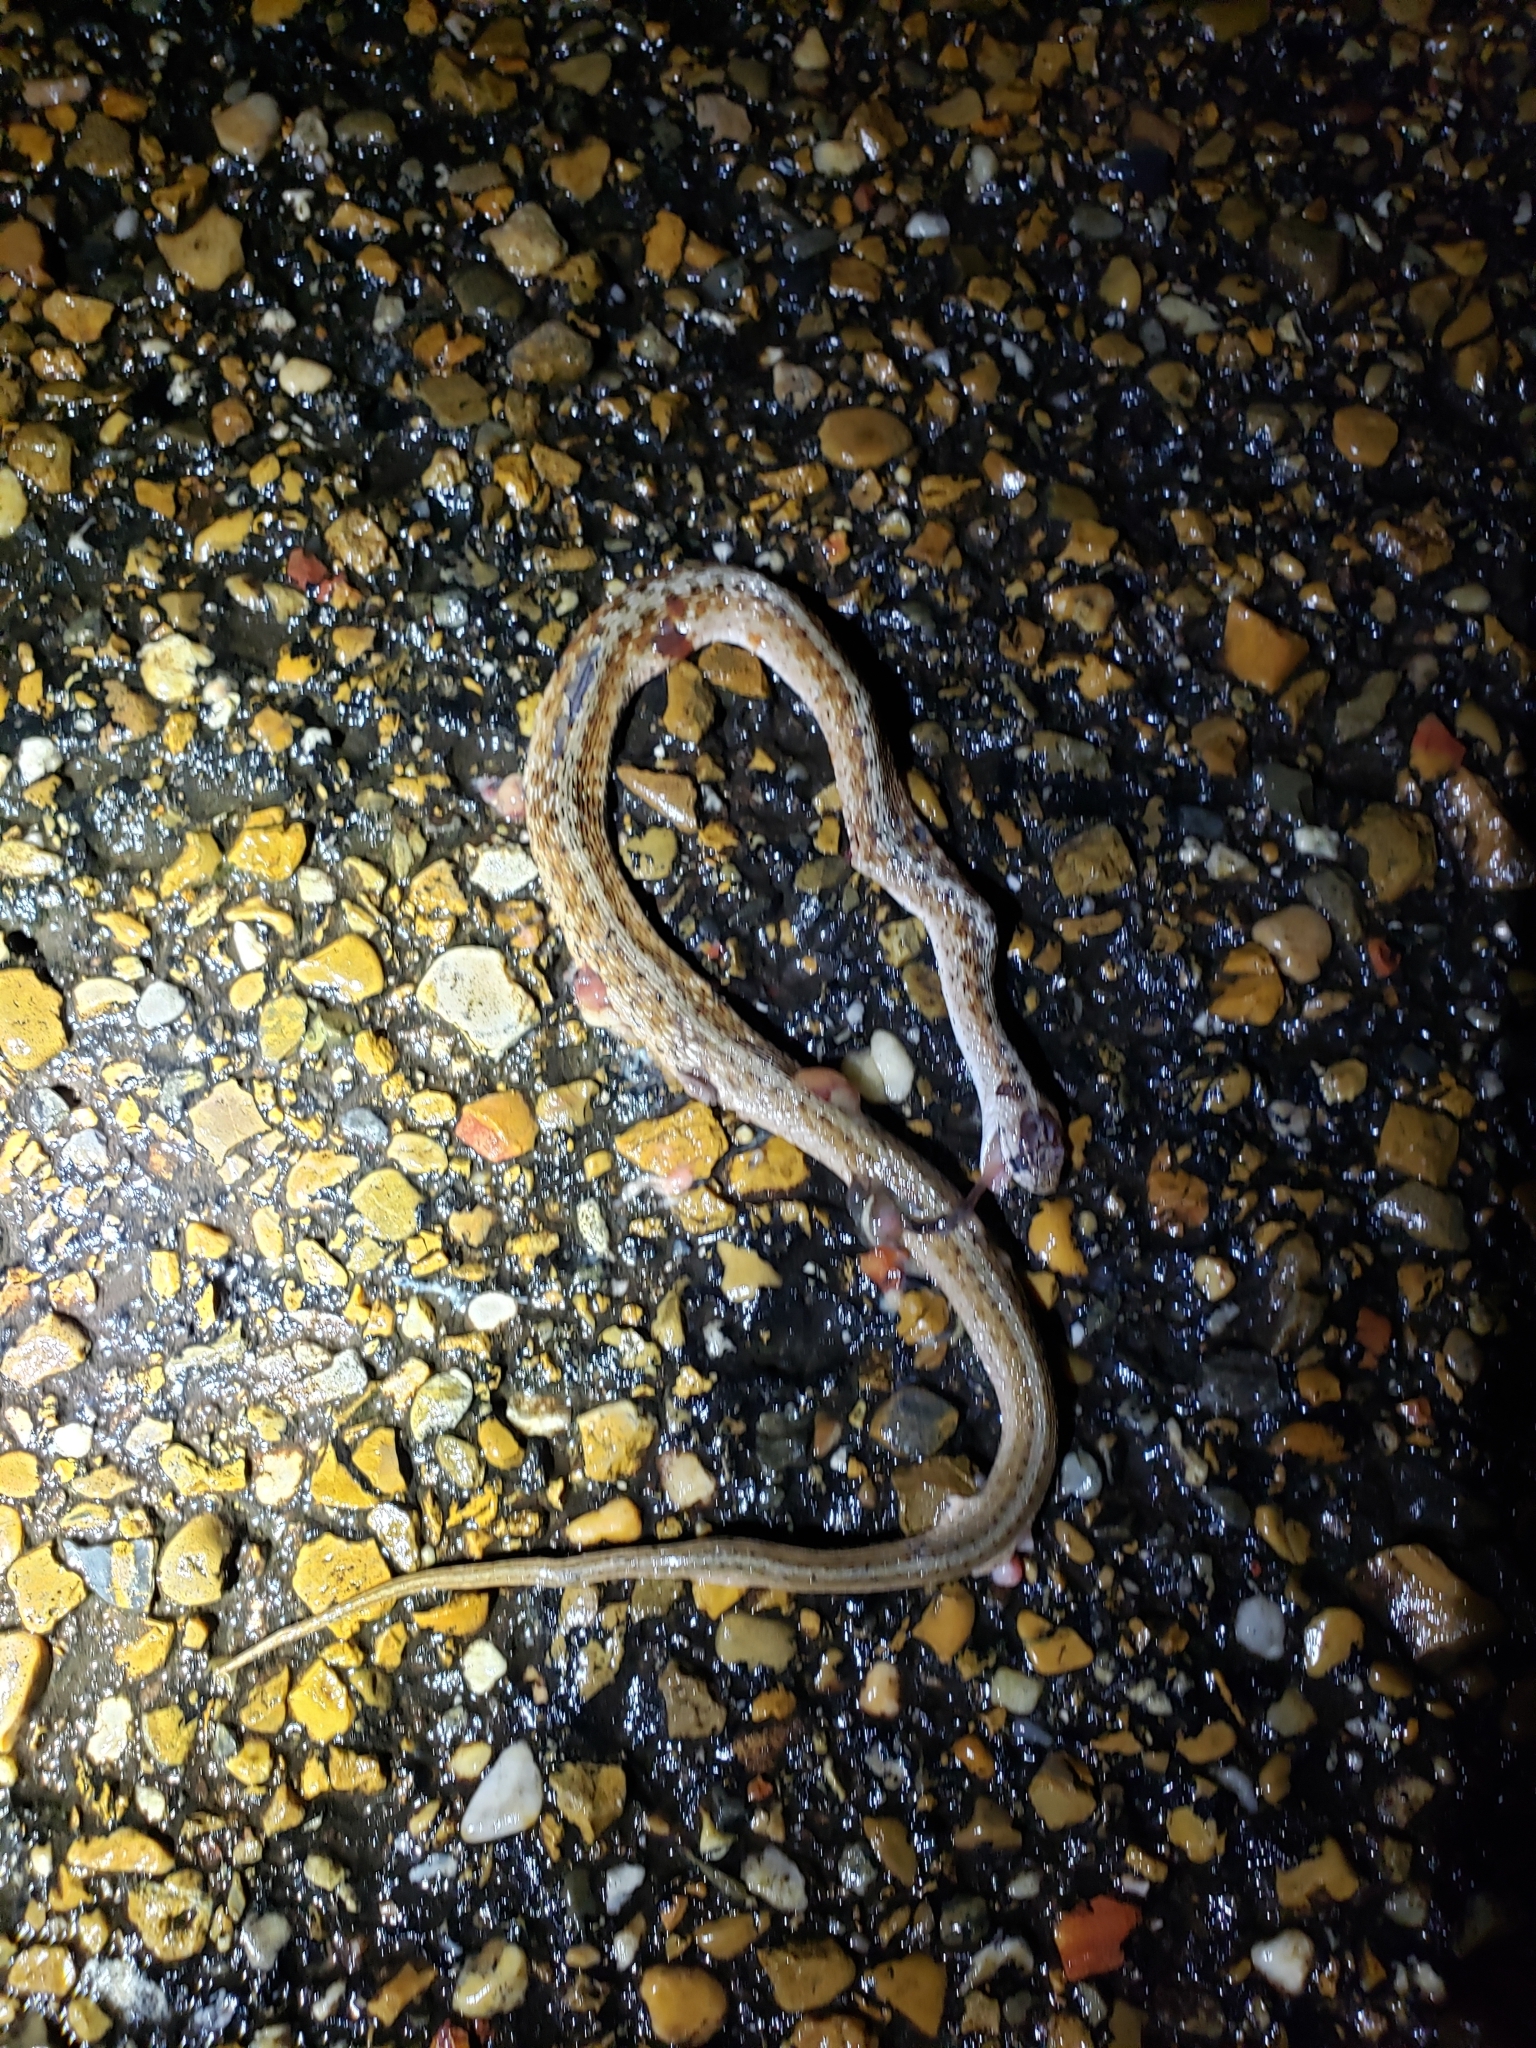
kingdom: Animalia
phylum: Chordata
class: Squamata
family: Colubridae
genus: Storeria
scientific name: Storeria dekayi
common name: (dekay’s) brown snake
